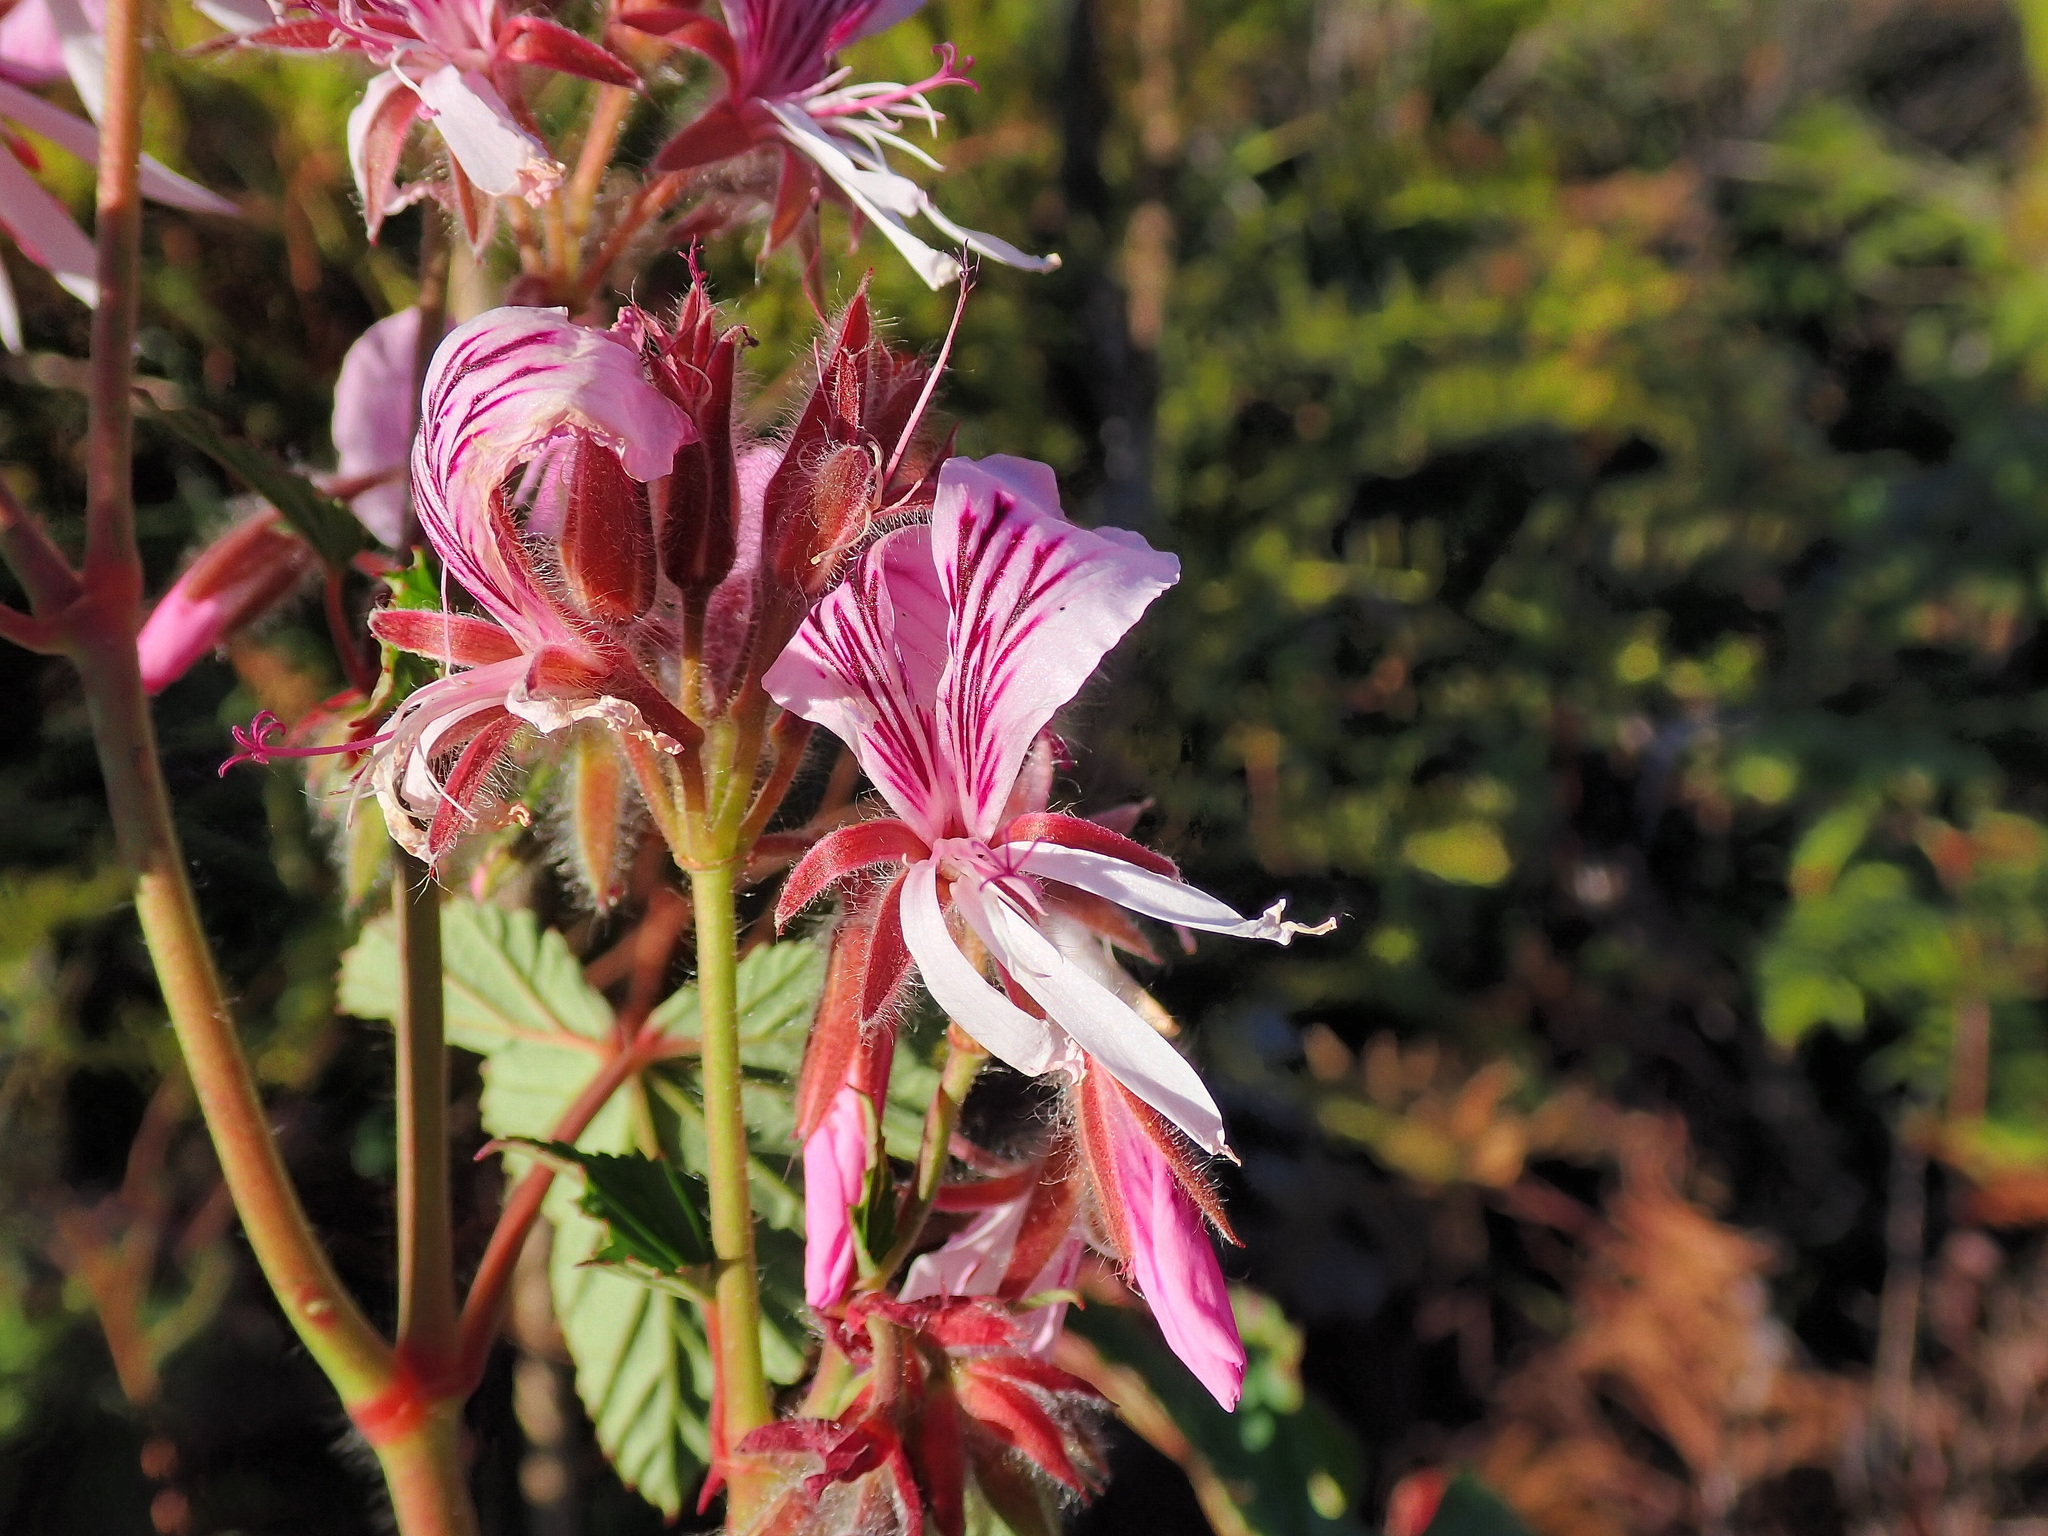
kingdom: Plantae
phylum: Tracheophyta
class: Magnoliopsida
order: Geraniales
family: Geraniaceae
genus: Pelargonium
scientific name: Pelargonium cordifolium
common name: Heart-leaf pelargonium
